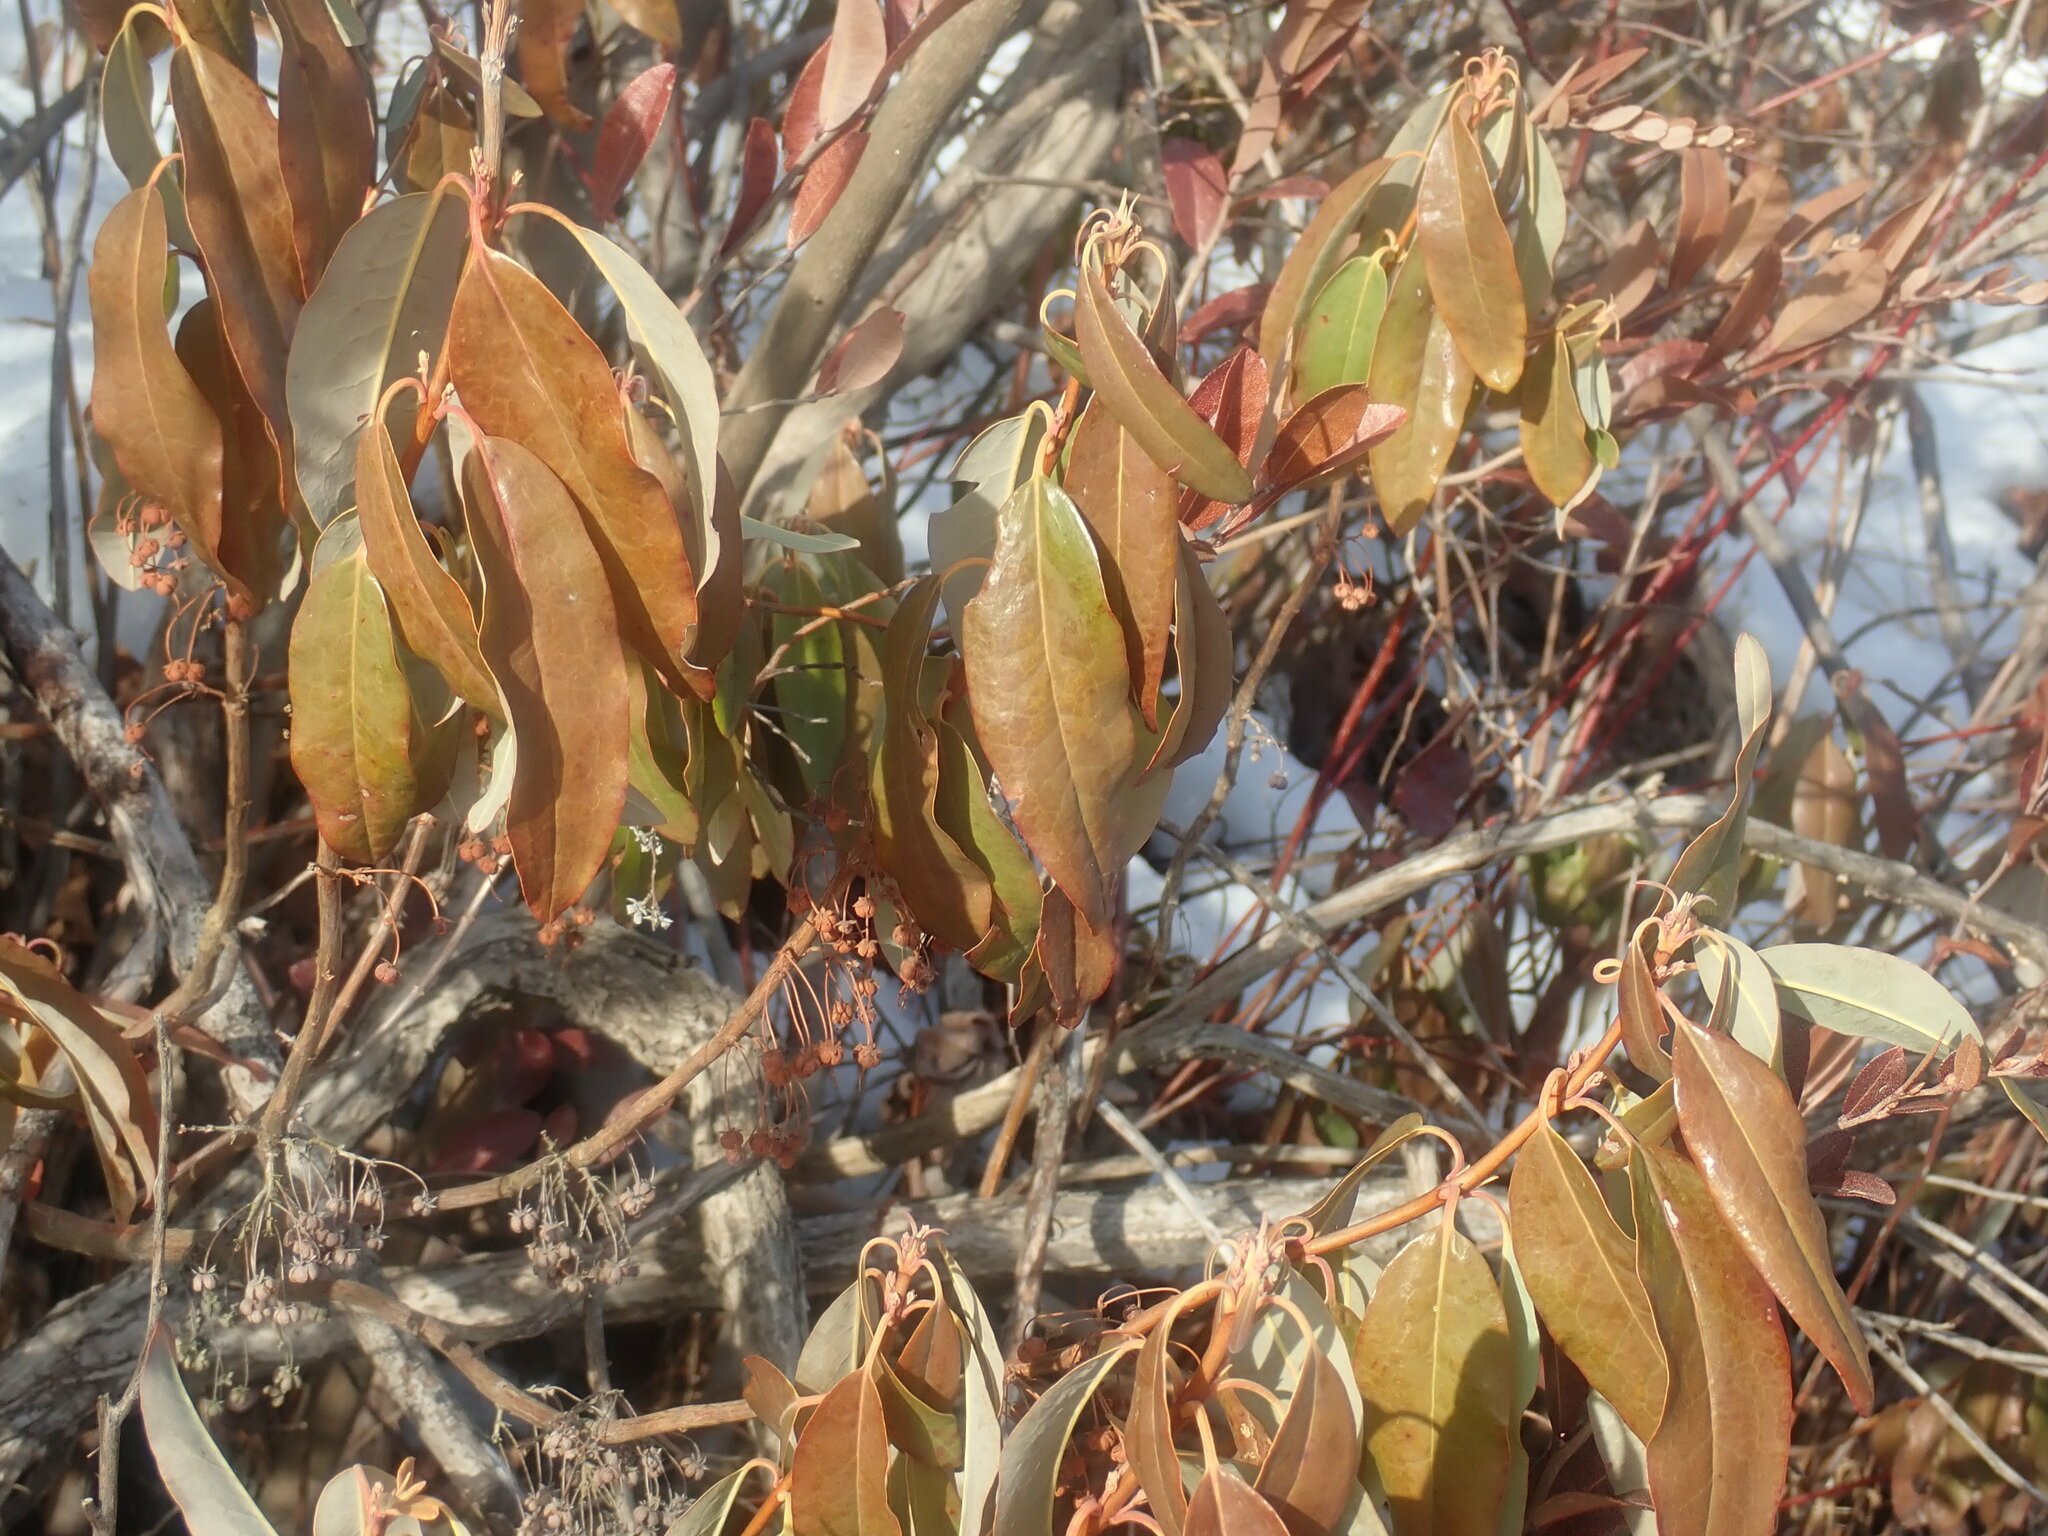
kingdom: Plantae
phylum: Tracheophyta
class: Magnoliopsida
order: Ericales
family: Ericaceae
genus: Kalmia
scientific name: Kalmia angustifolia
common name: Sheep-laurel
